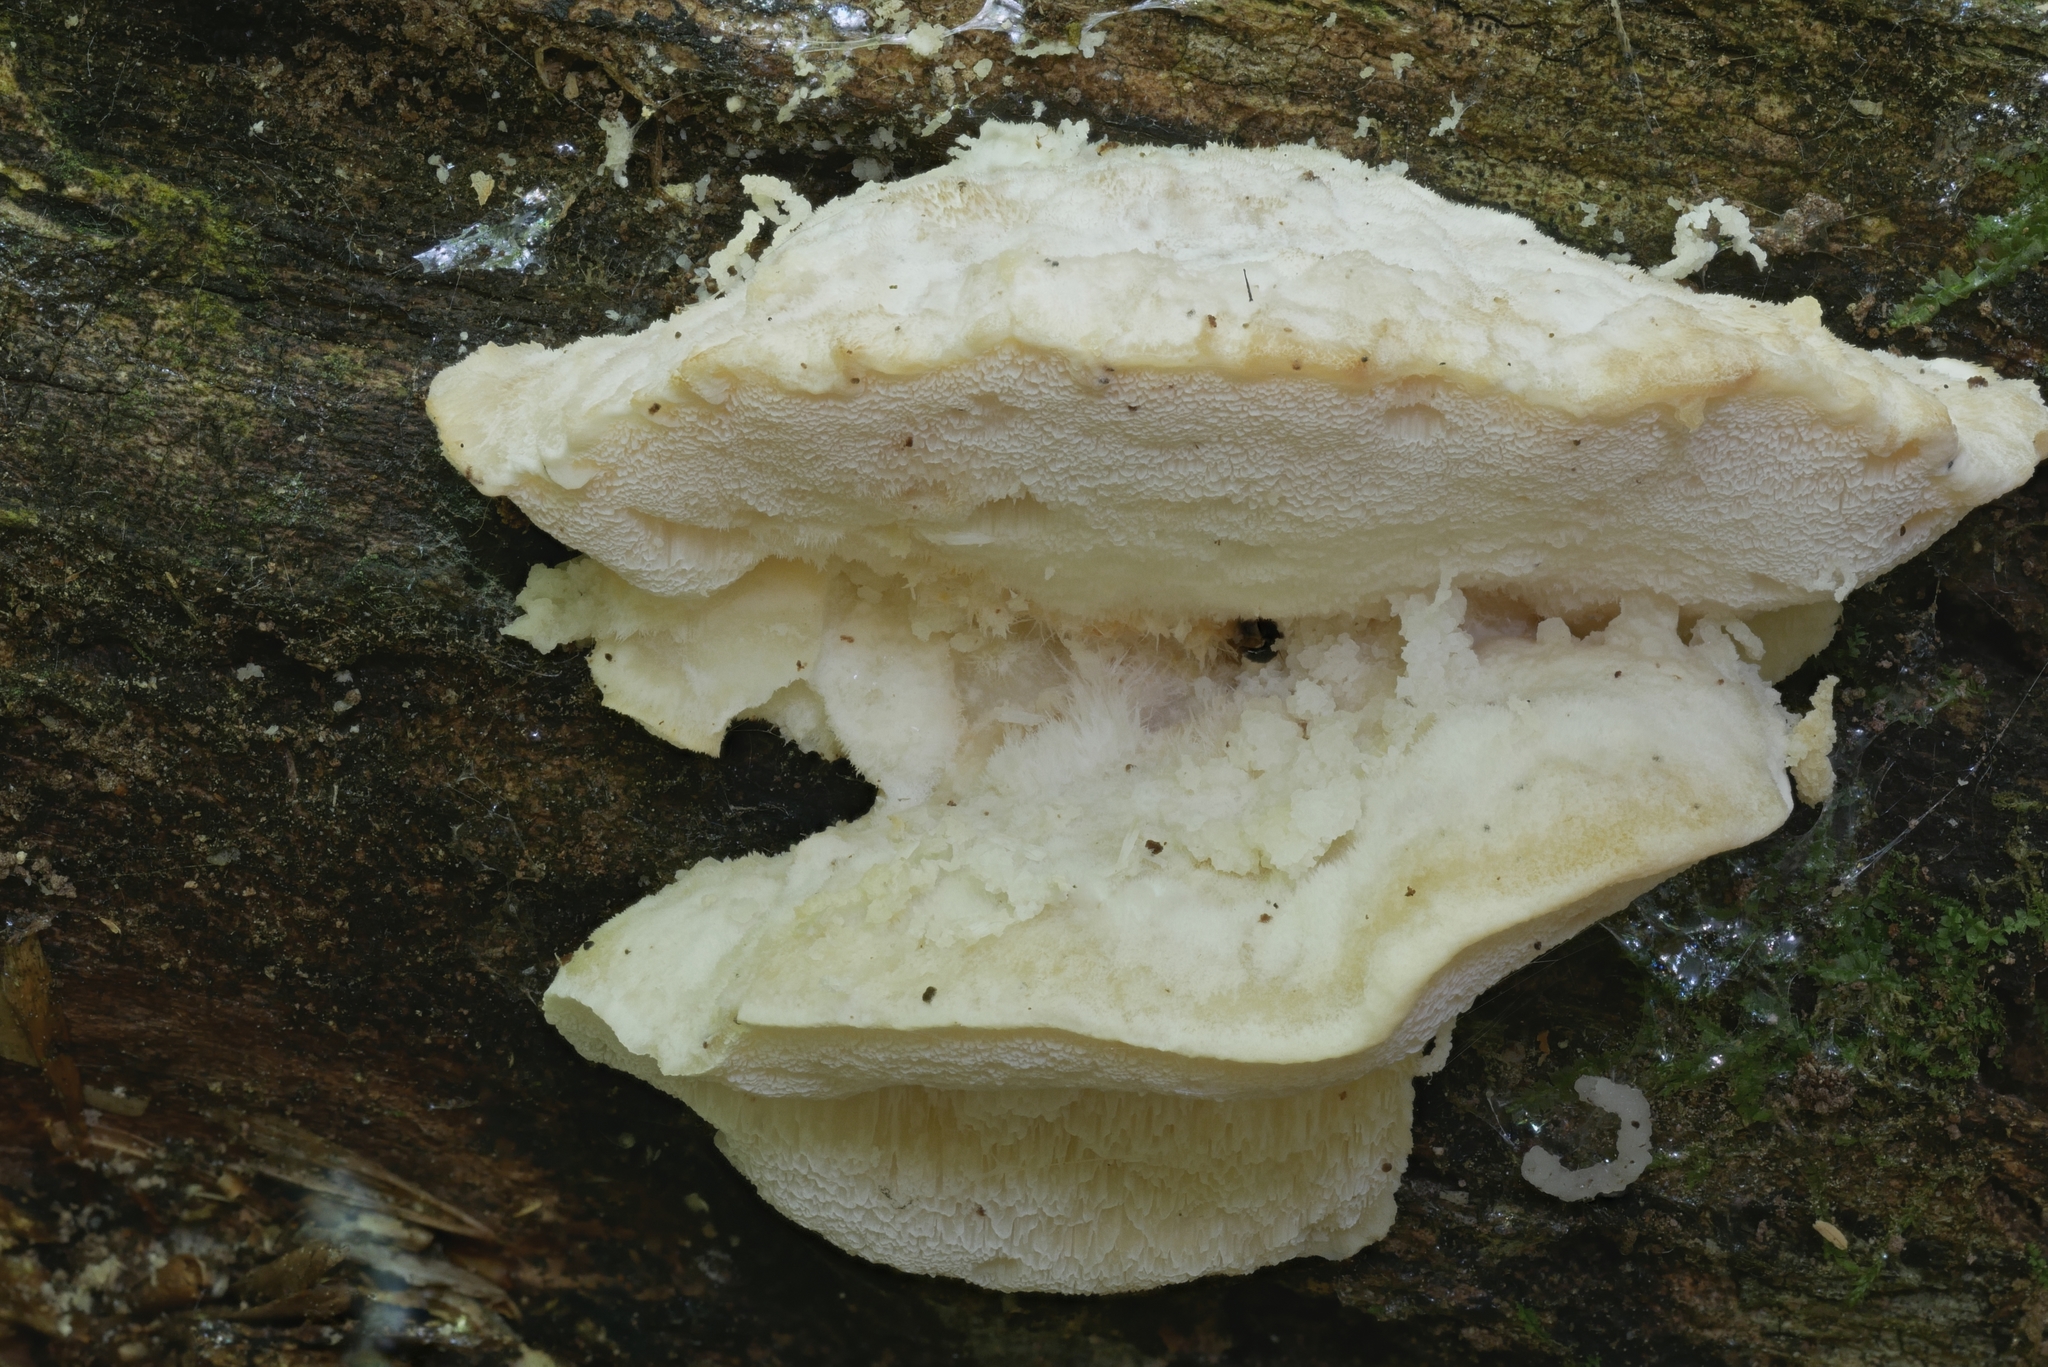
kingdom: Fungi
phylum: Basidiomycota
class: Agaricomycetes
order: Polyporales
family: Incrustoporiaceae
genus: Tyromyces
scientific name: Tyromyces chioneus
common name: White cheese polypore
